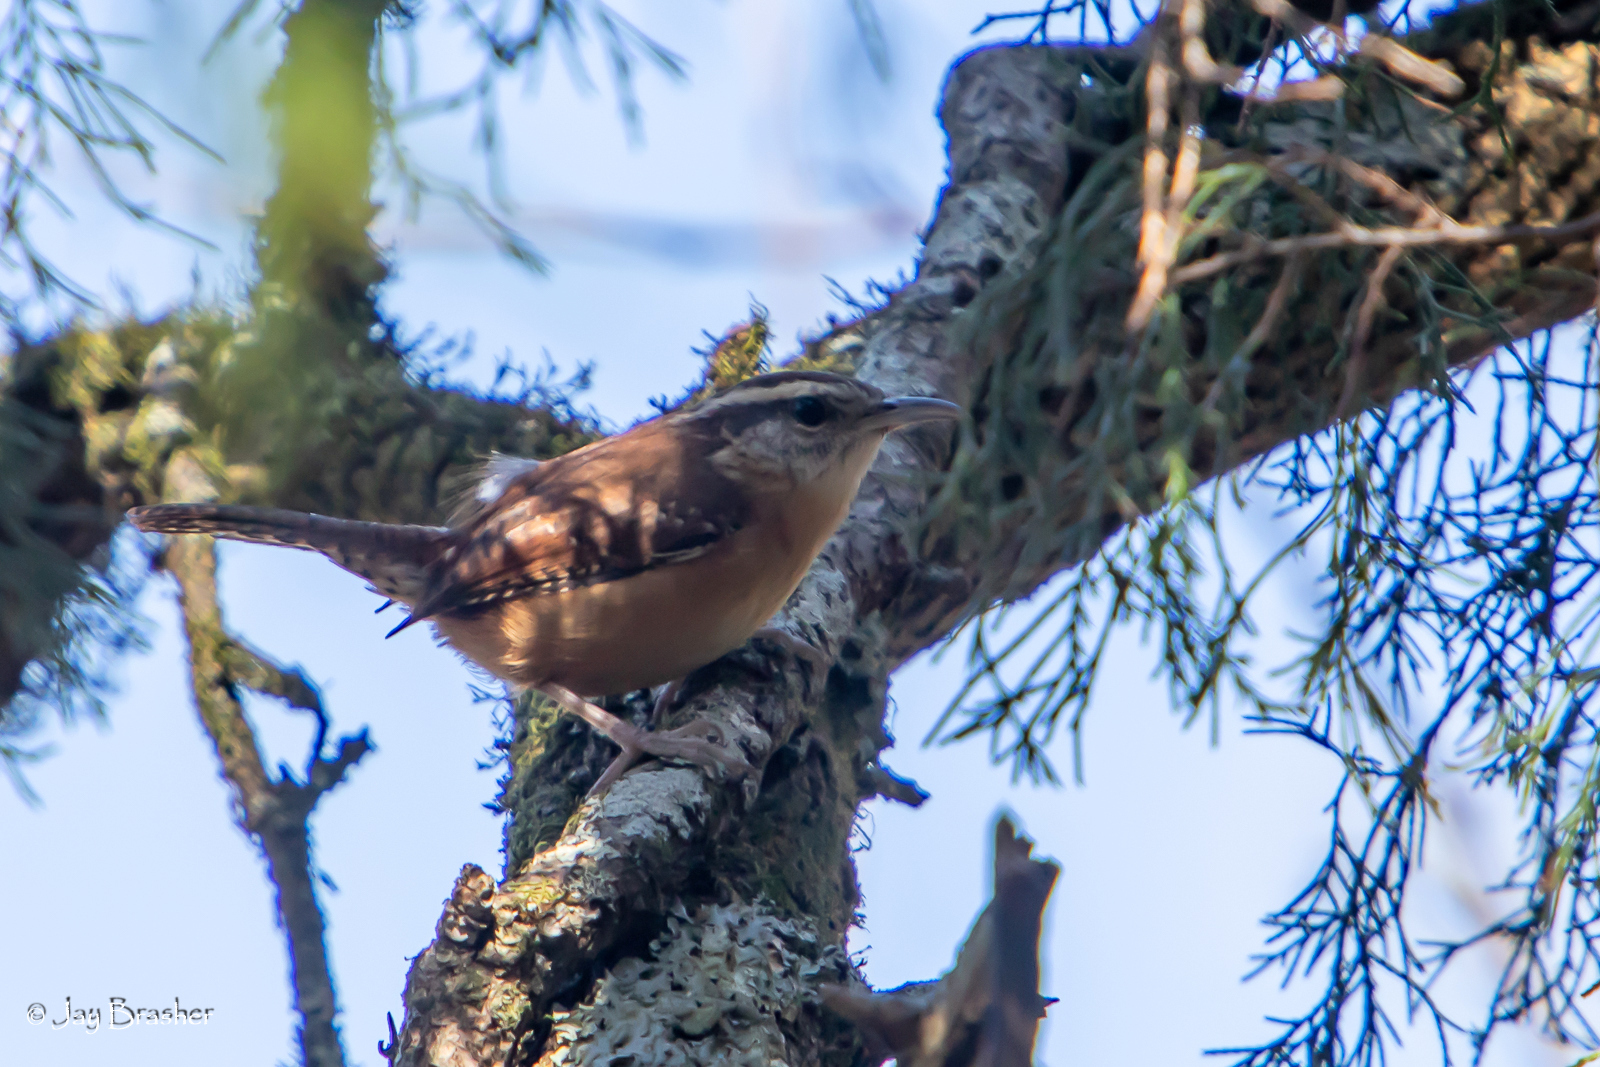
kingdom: Animalia
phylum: Chordata
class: Aves
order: Passeriformes
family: Troglodytidae
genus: Thryothorus
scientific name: Thryothorus ludovicianus
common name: Carolina wren
